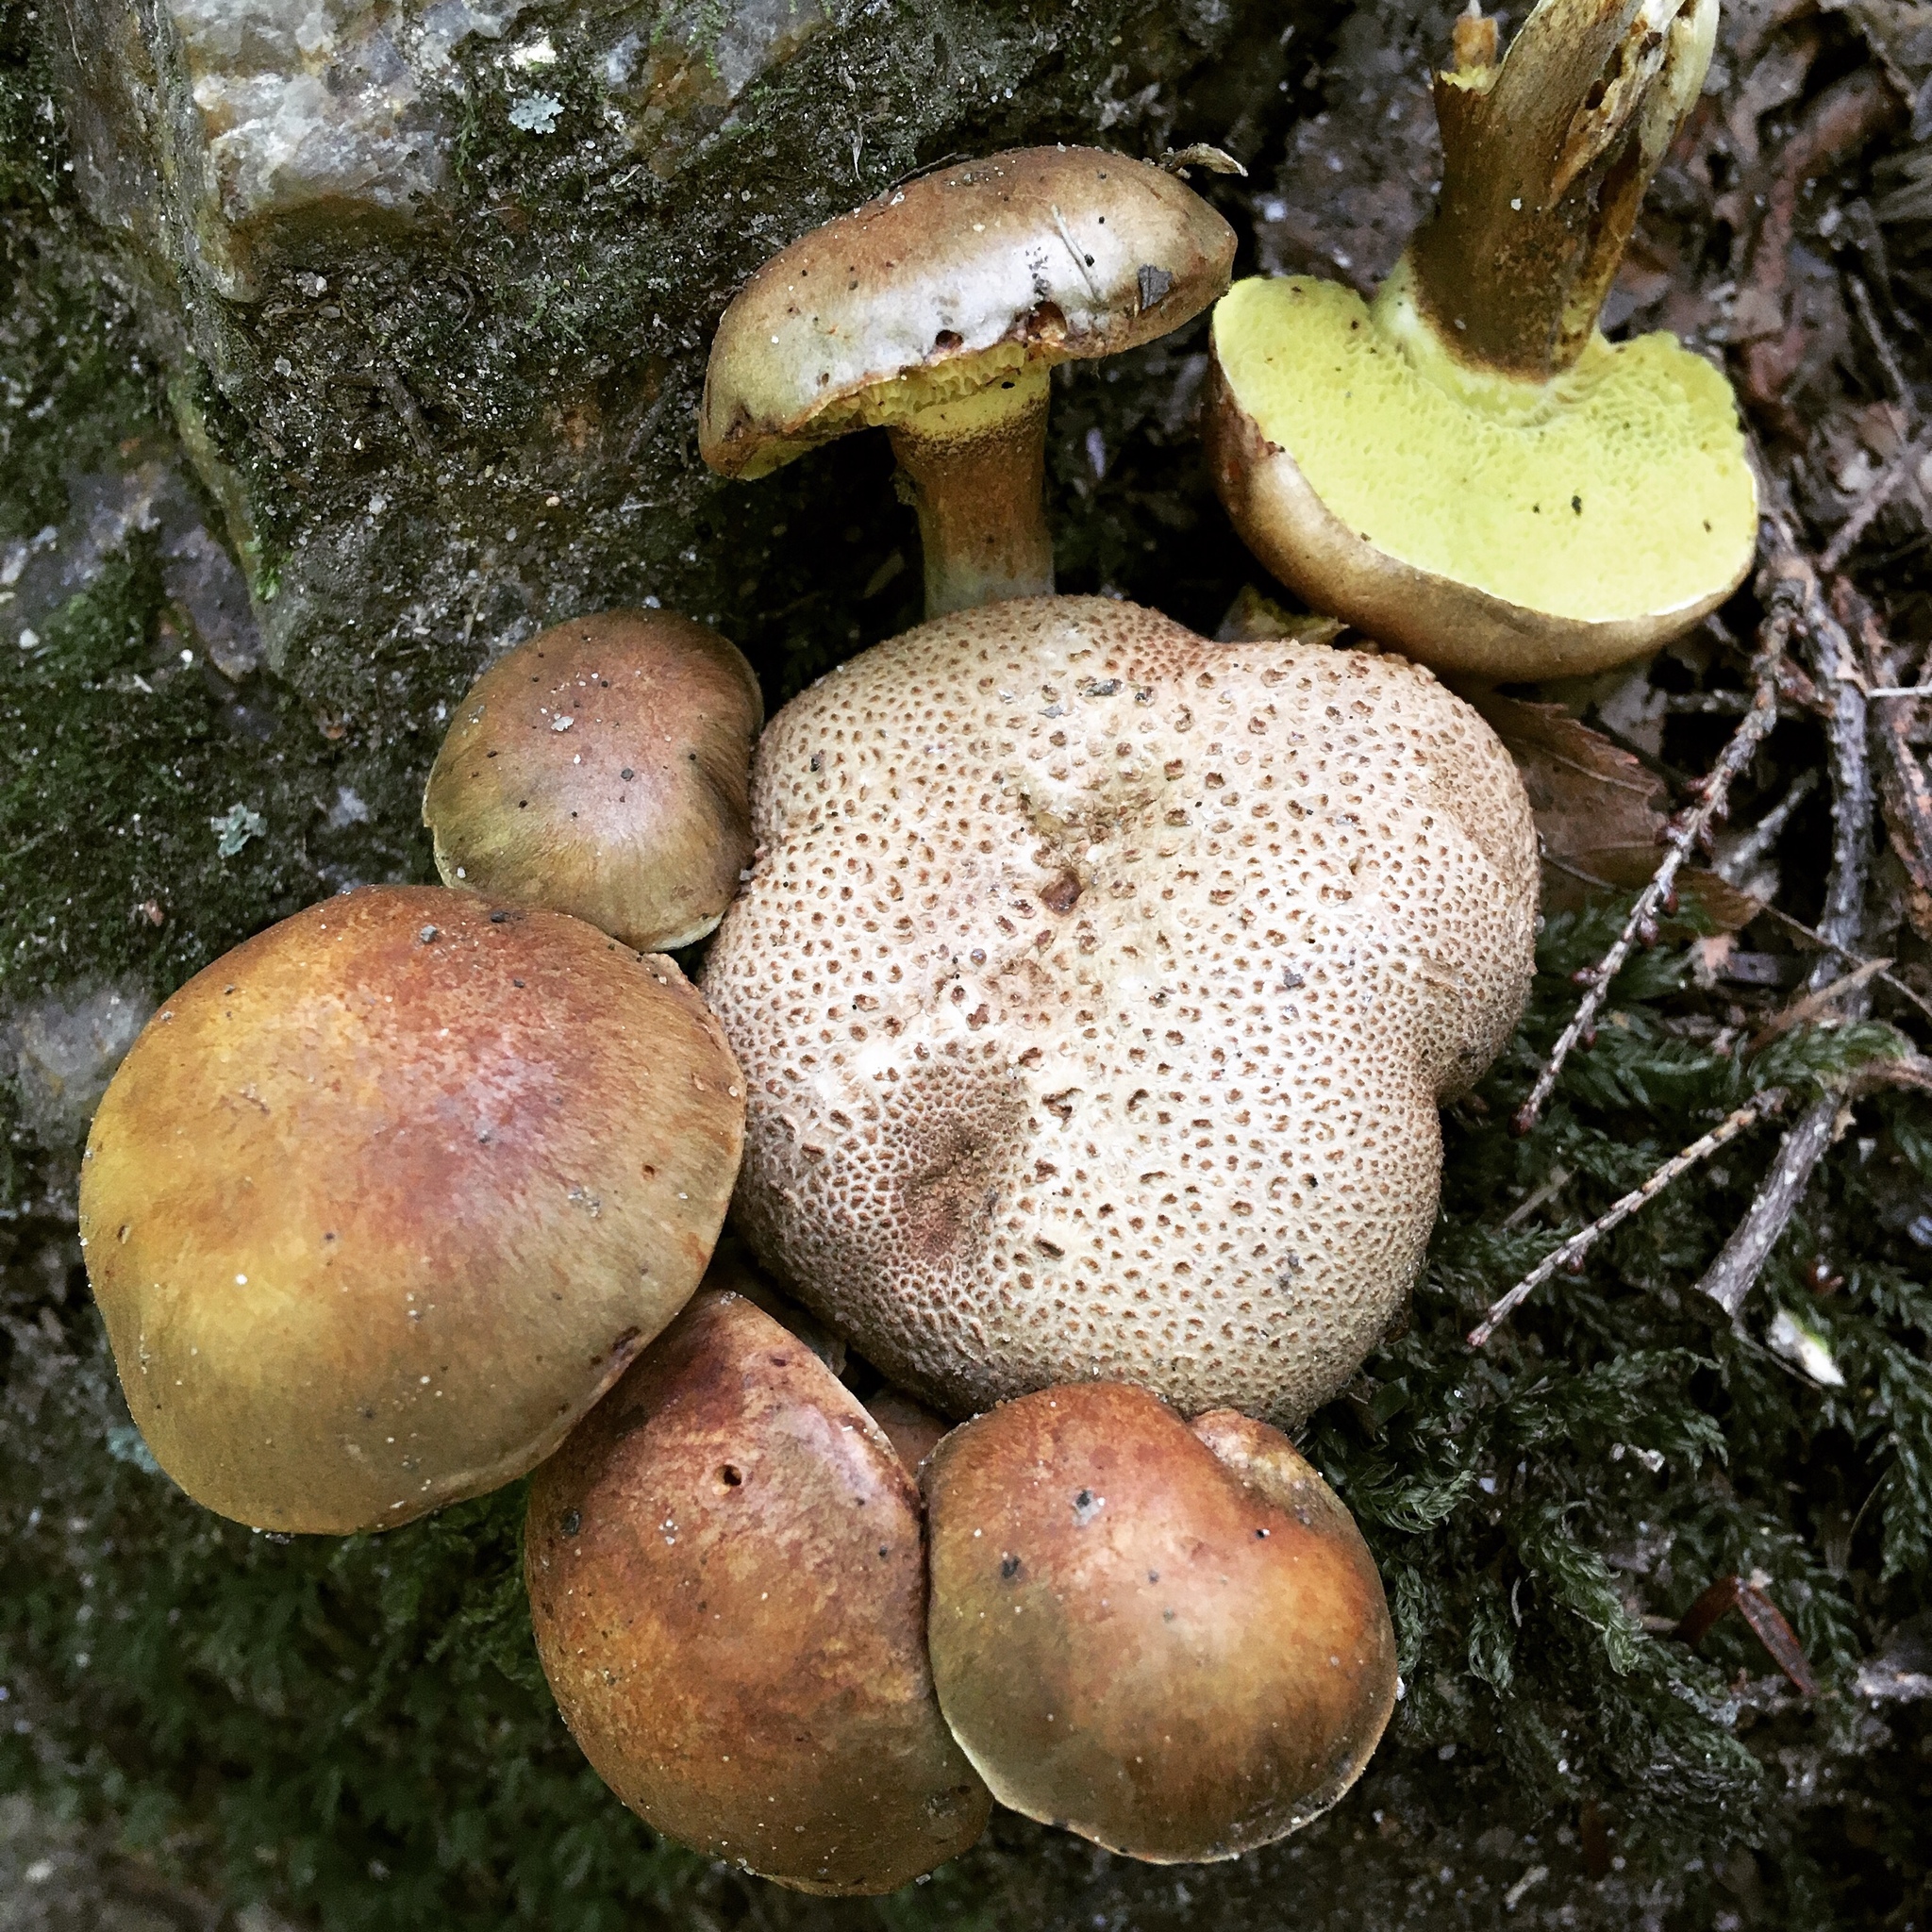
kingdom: Fungi
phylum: Basidiomycota
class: Agaricomycetes
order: Boletales
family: Boletaceae
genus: Pseudoboletus
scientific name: Pseudoboletus parasiticus
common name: Parasitic bolete
